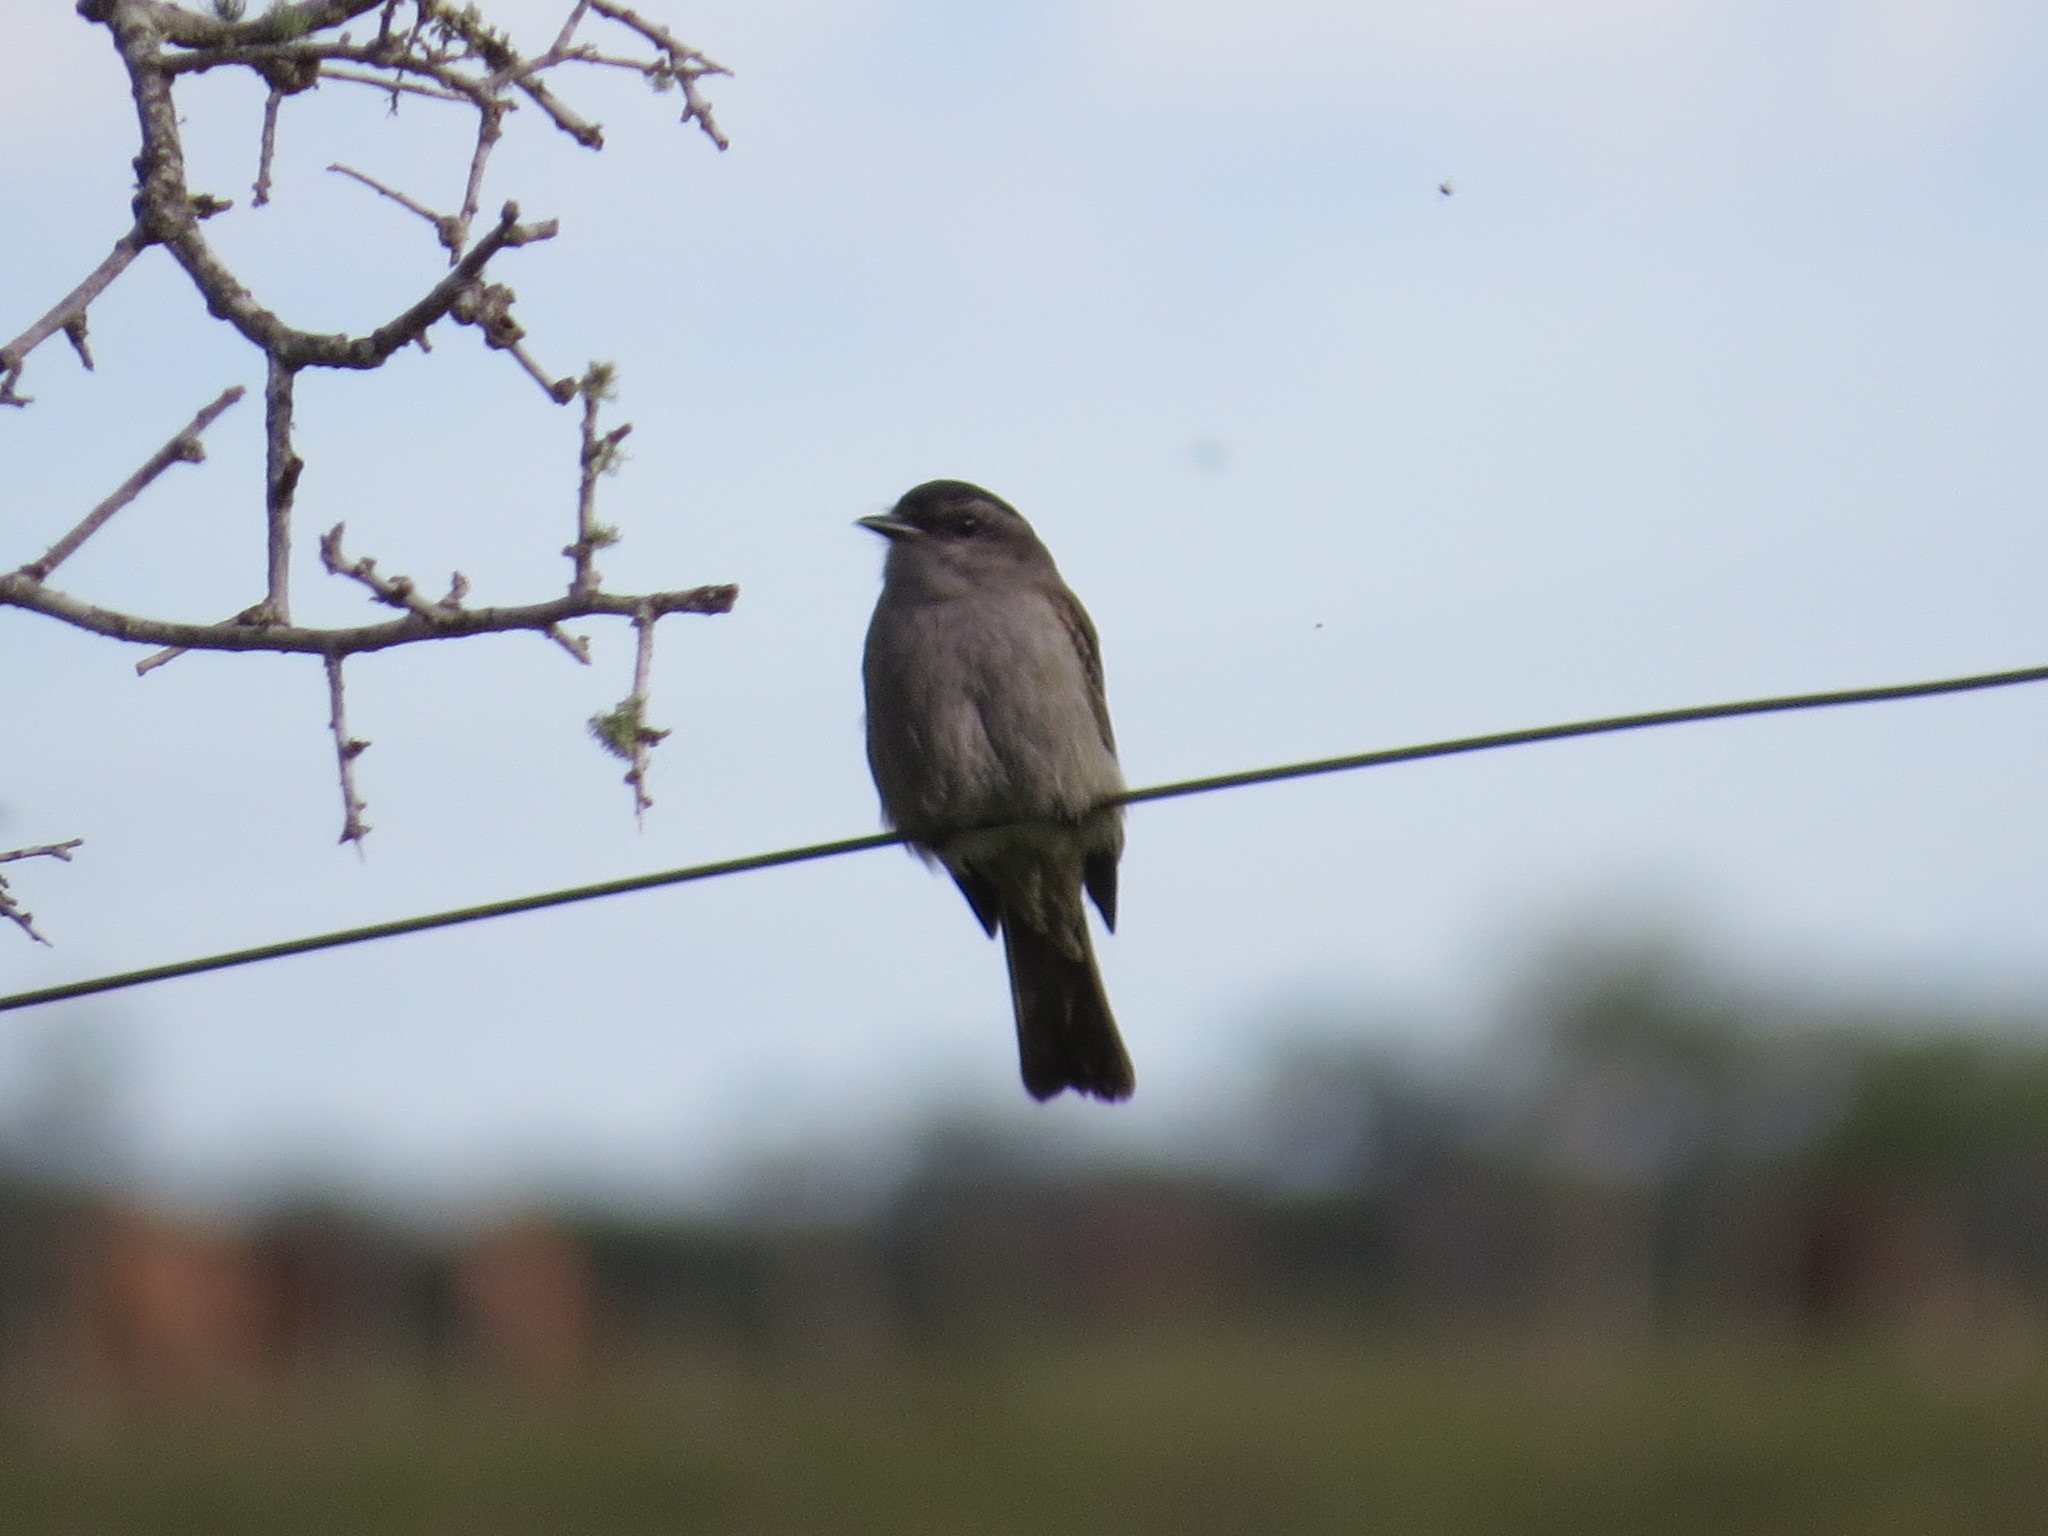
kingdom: Animalia
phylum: Chordata
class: Aves
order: Passeriformes
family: Tyrannidae
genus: Empidonomus
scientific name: Empidonomus aurantioatrocristatus
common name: Crowned slaty flycatcher
